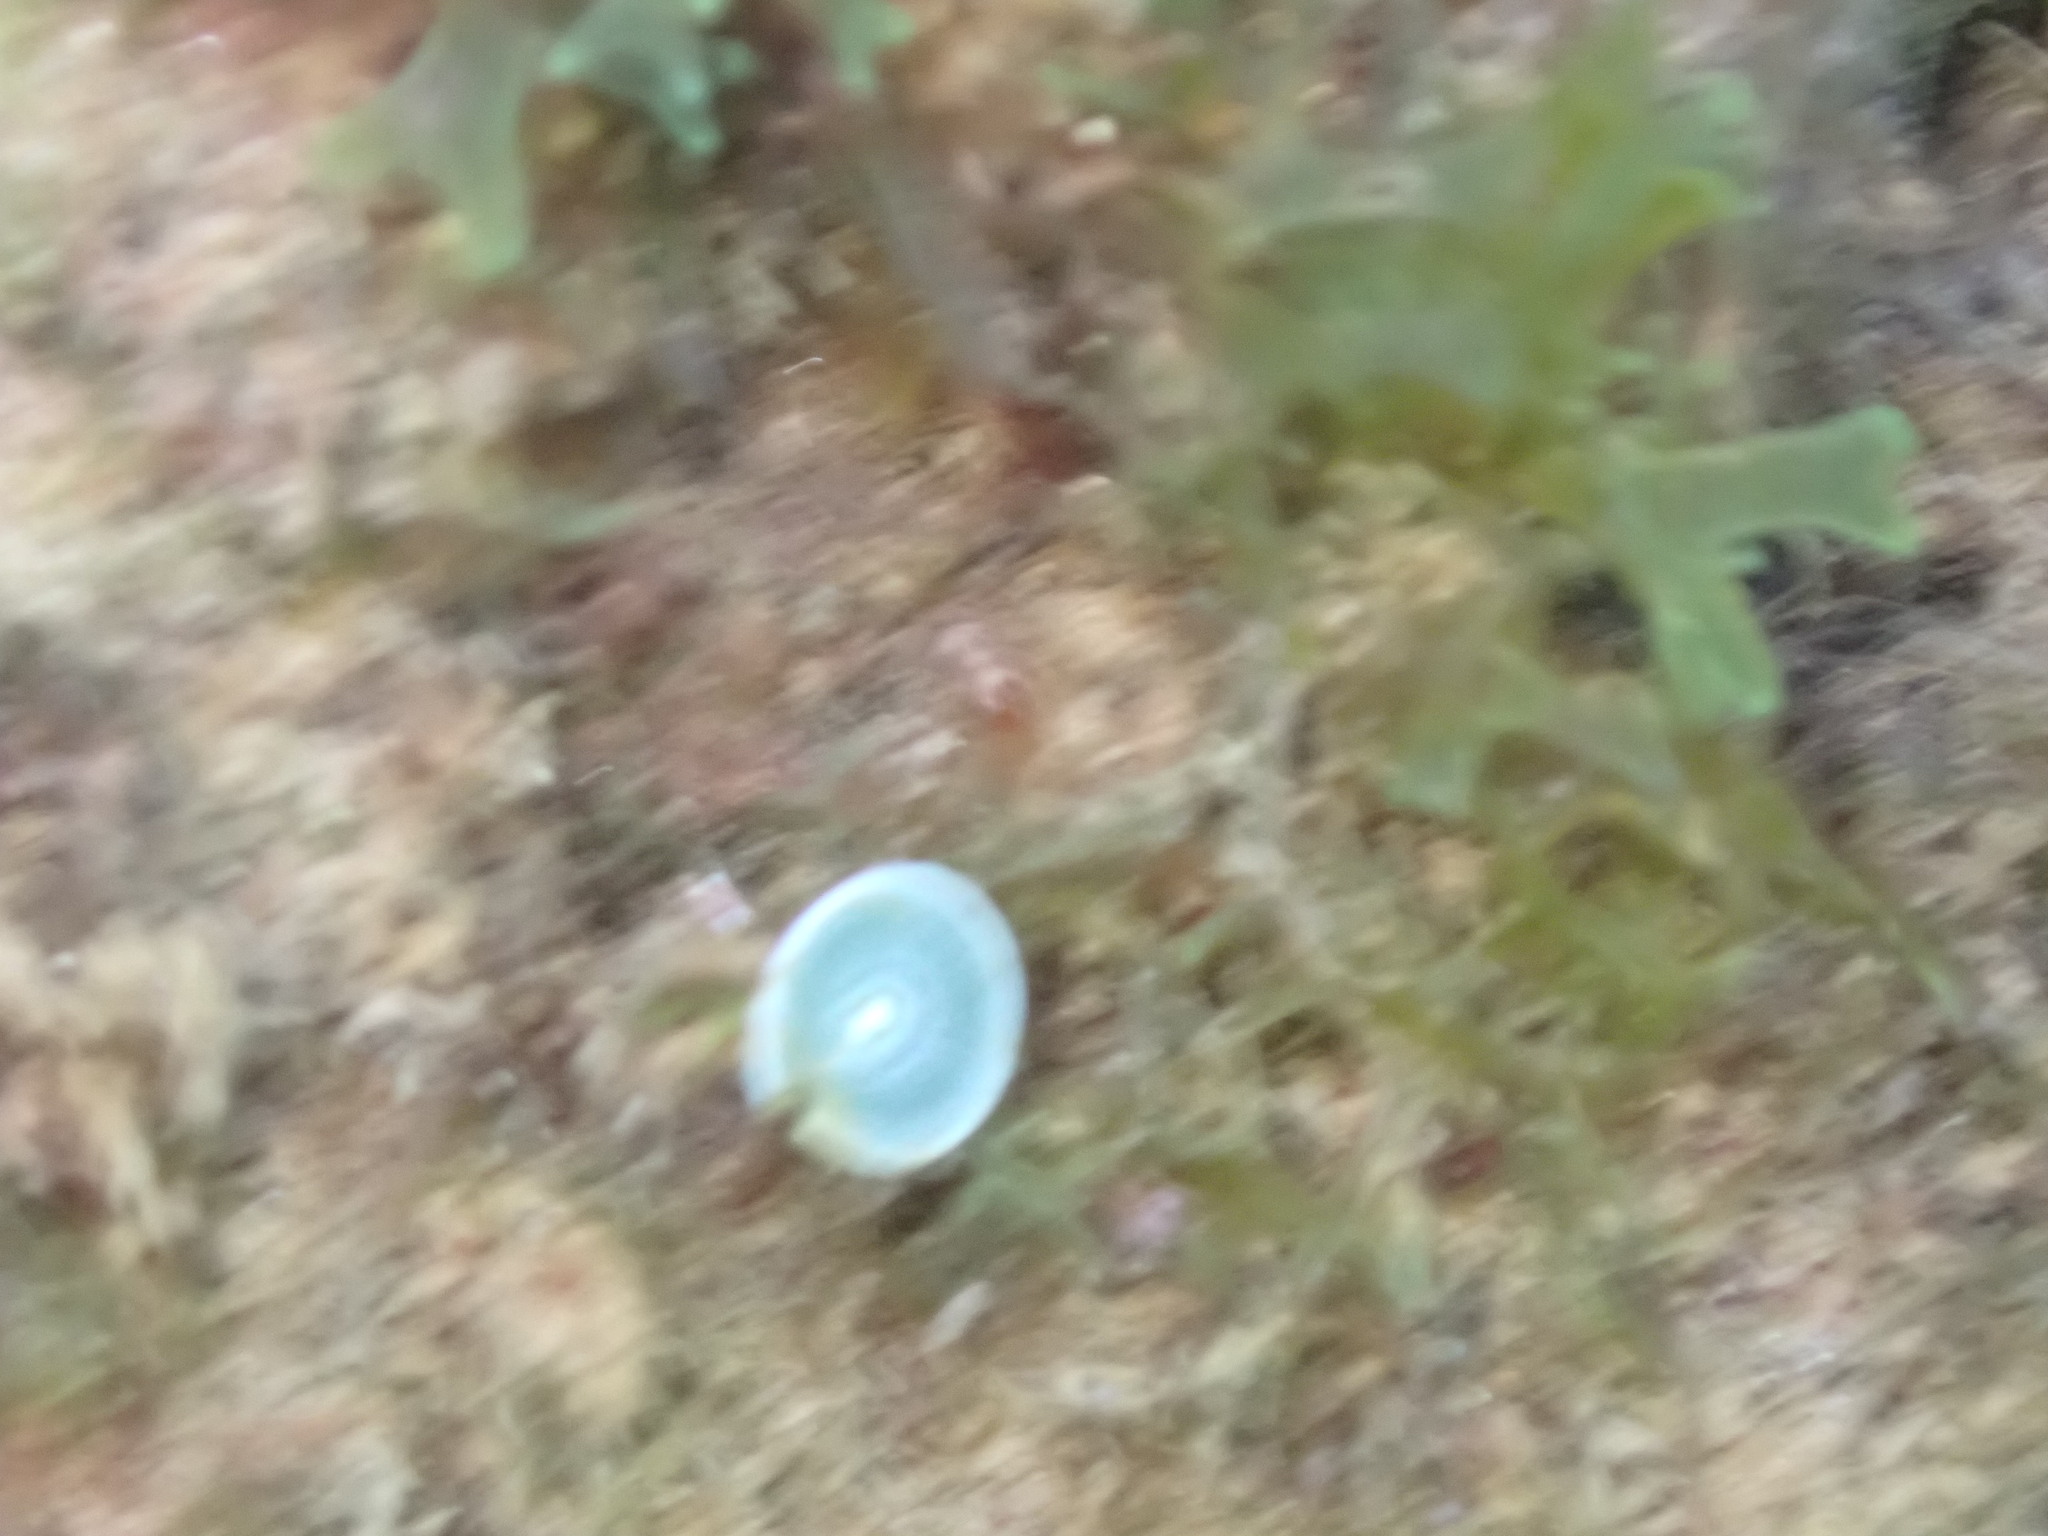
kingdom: Plantae
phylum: Chlorophyta
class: Ulvophyceae
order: Dasycladales
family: Polyphysaceae
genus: Acetabularia
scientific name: Acetabularia acetabulum
